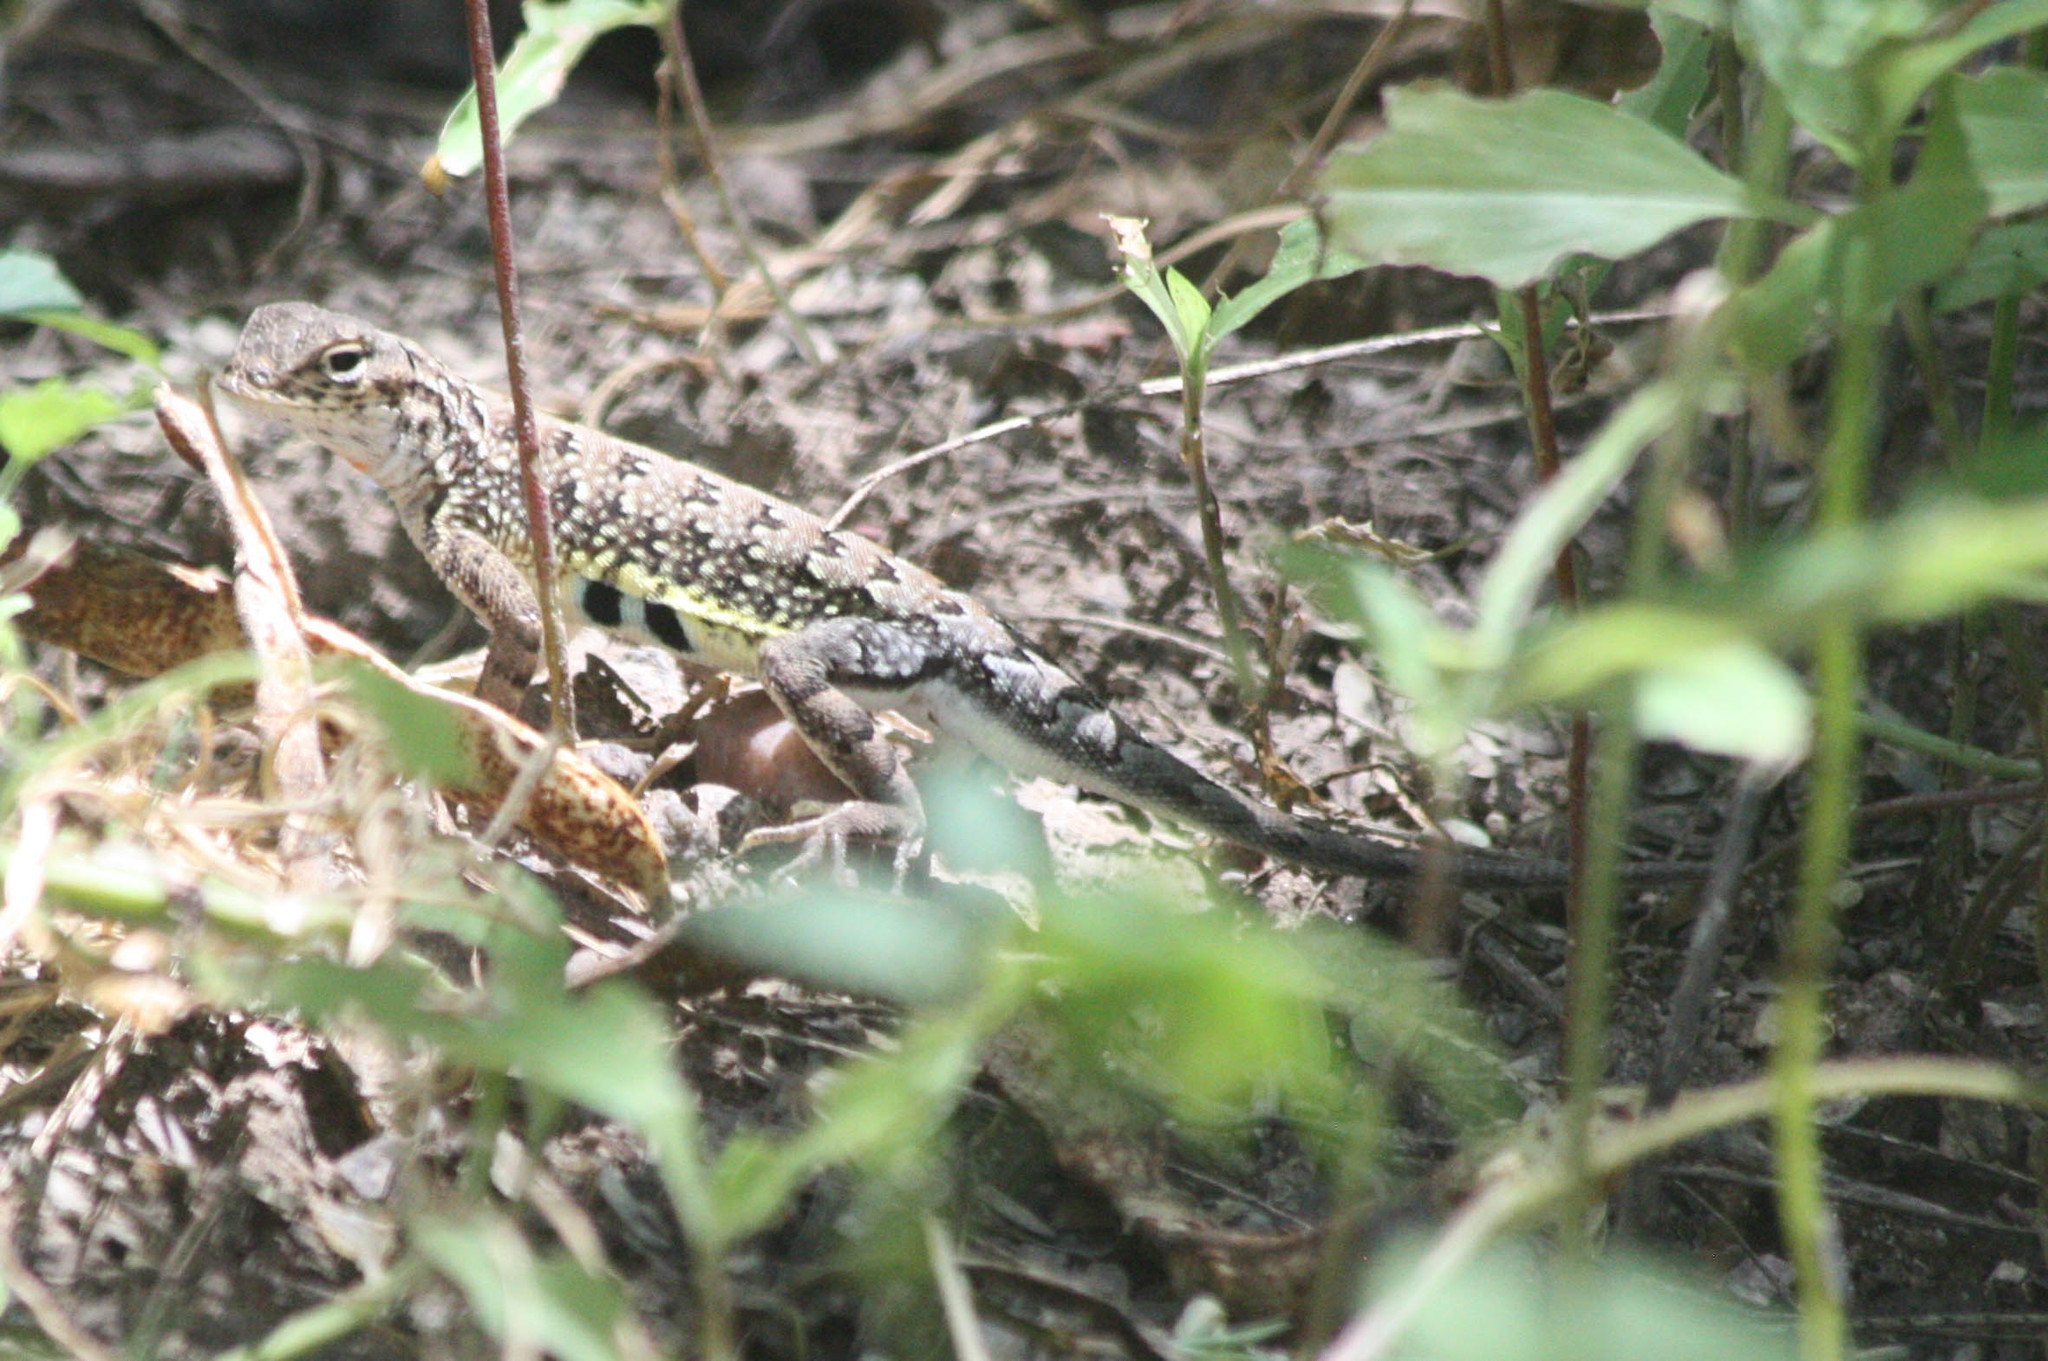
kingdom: Animalia
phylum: Chordata
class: Squamata
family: Phrynosomatidae
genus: Holbrookia
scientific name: Holbrookia elegans
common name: Elegant earless lizard
